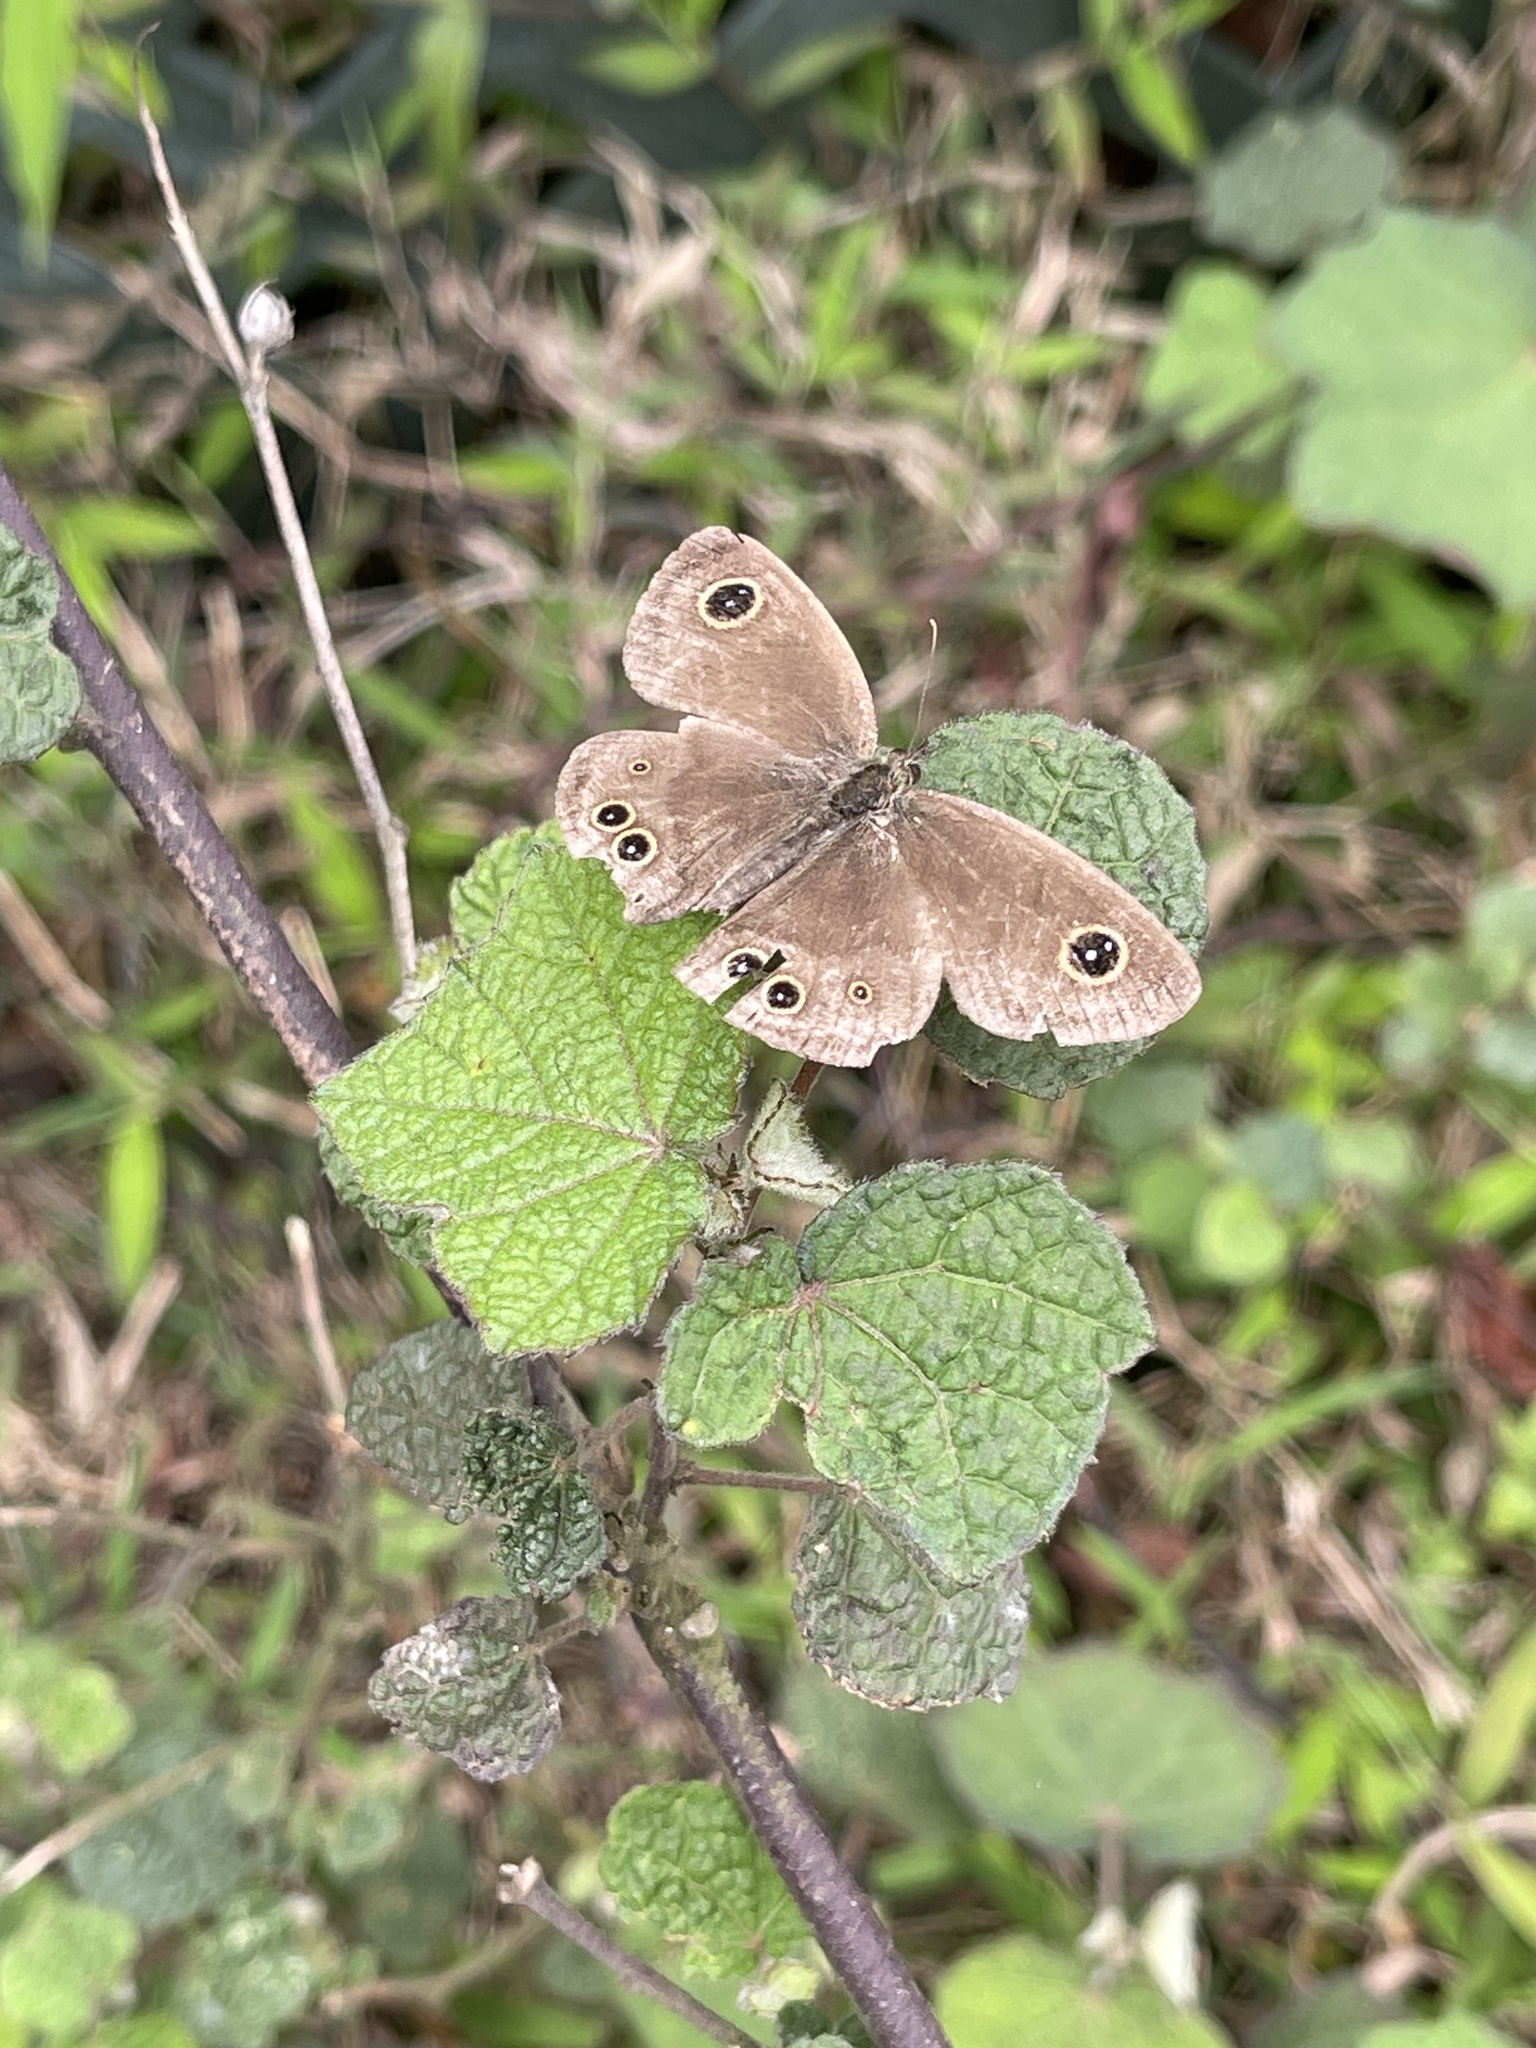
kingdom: Animalia
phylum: Arthropoda
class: Insecta
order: Lepidoptera
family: Nymphalidae
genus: Ypthima
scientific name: Ypthima baldus
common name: Common five-ring
